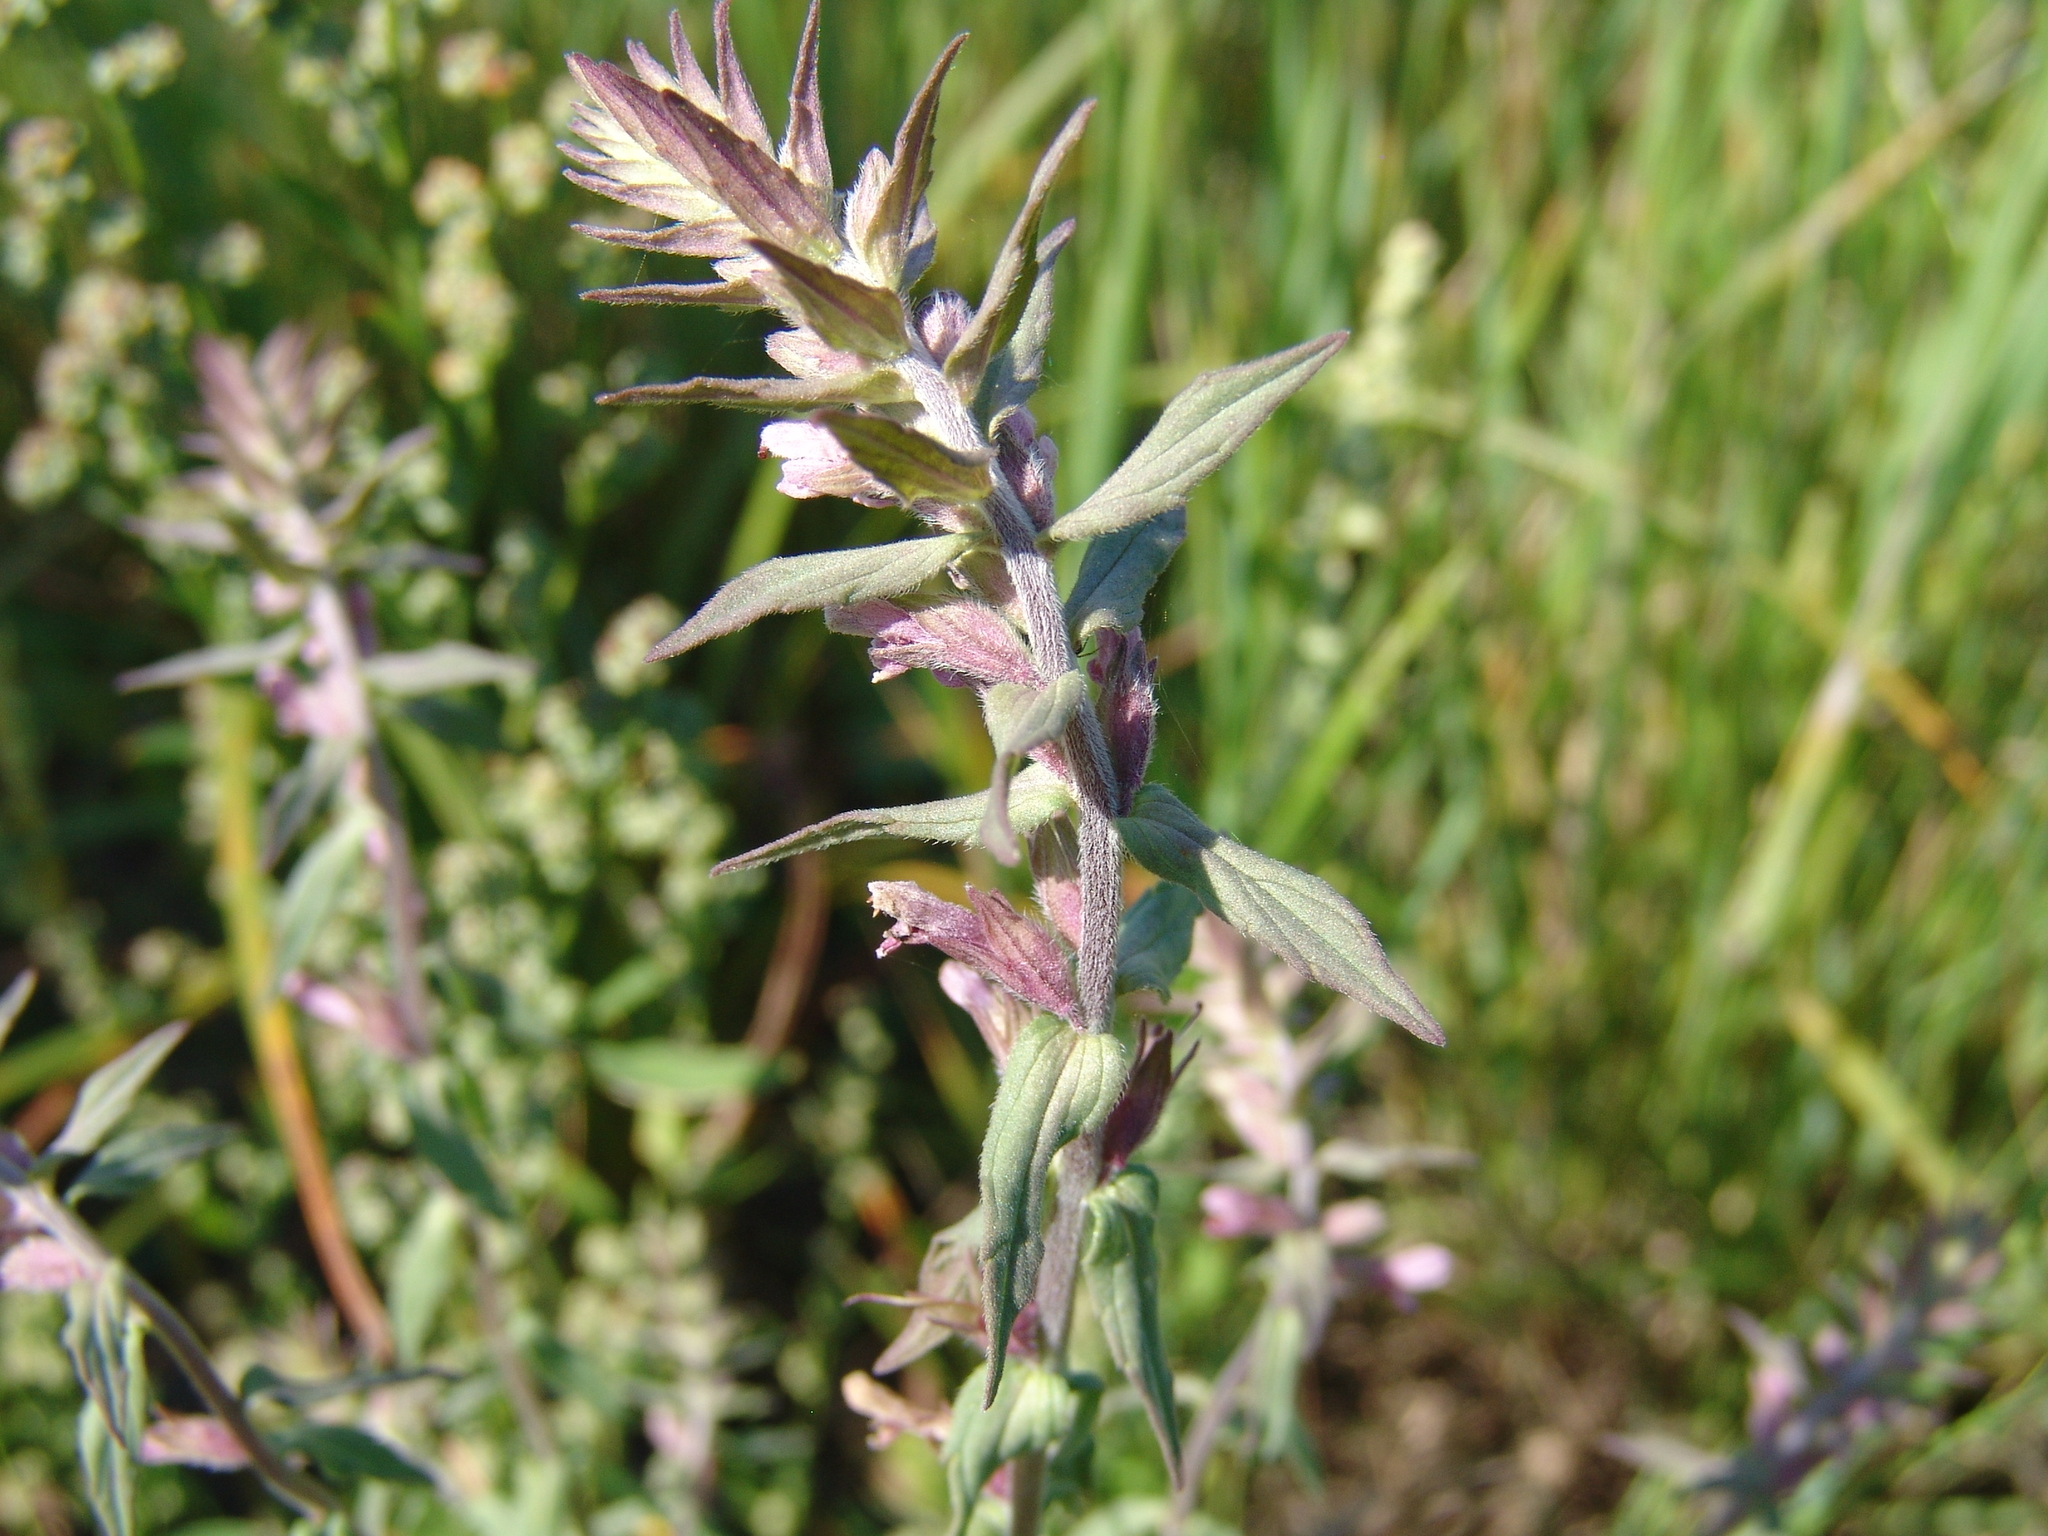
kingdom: Plantae
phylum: Tracheophyta
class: Magnoliopsida
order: Lamiales
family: Orobanchaceae
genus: Odontites
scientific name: Odontites vulgaris
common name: Broomrape
